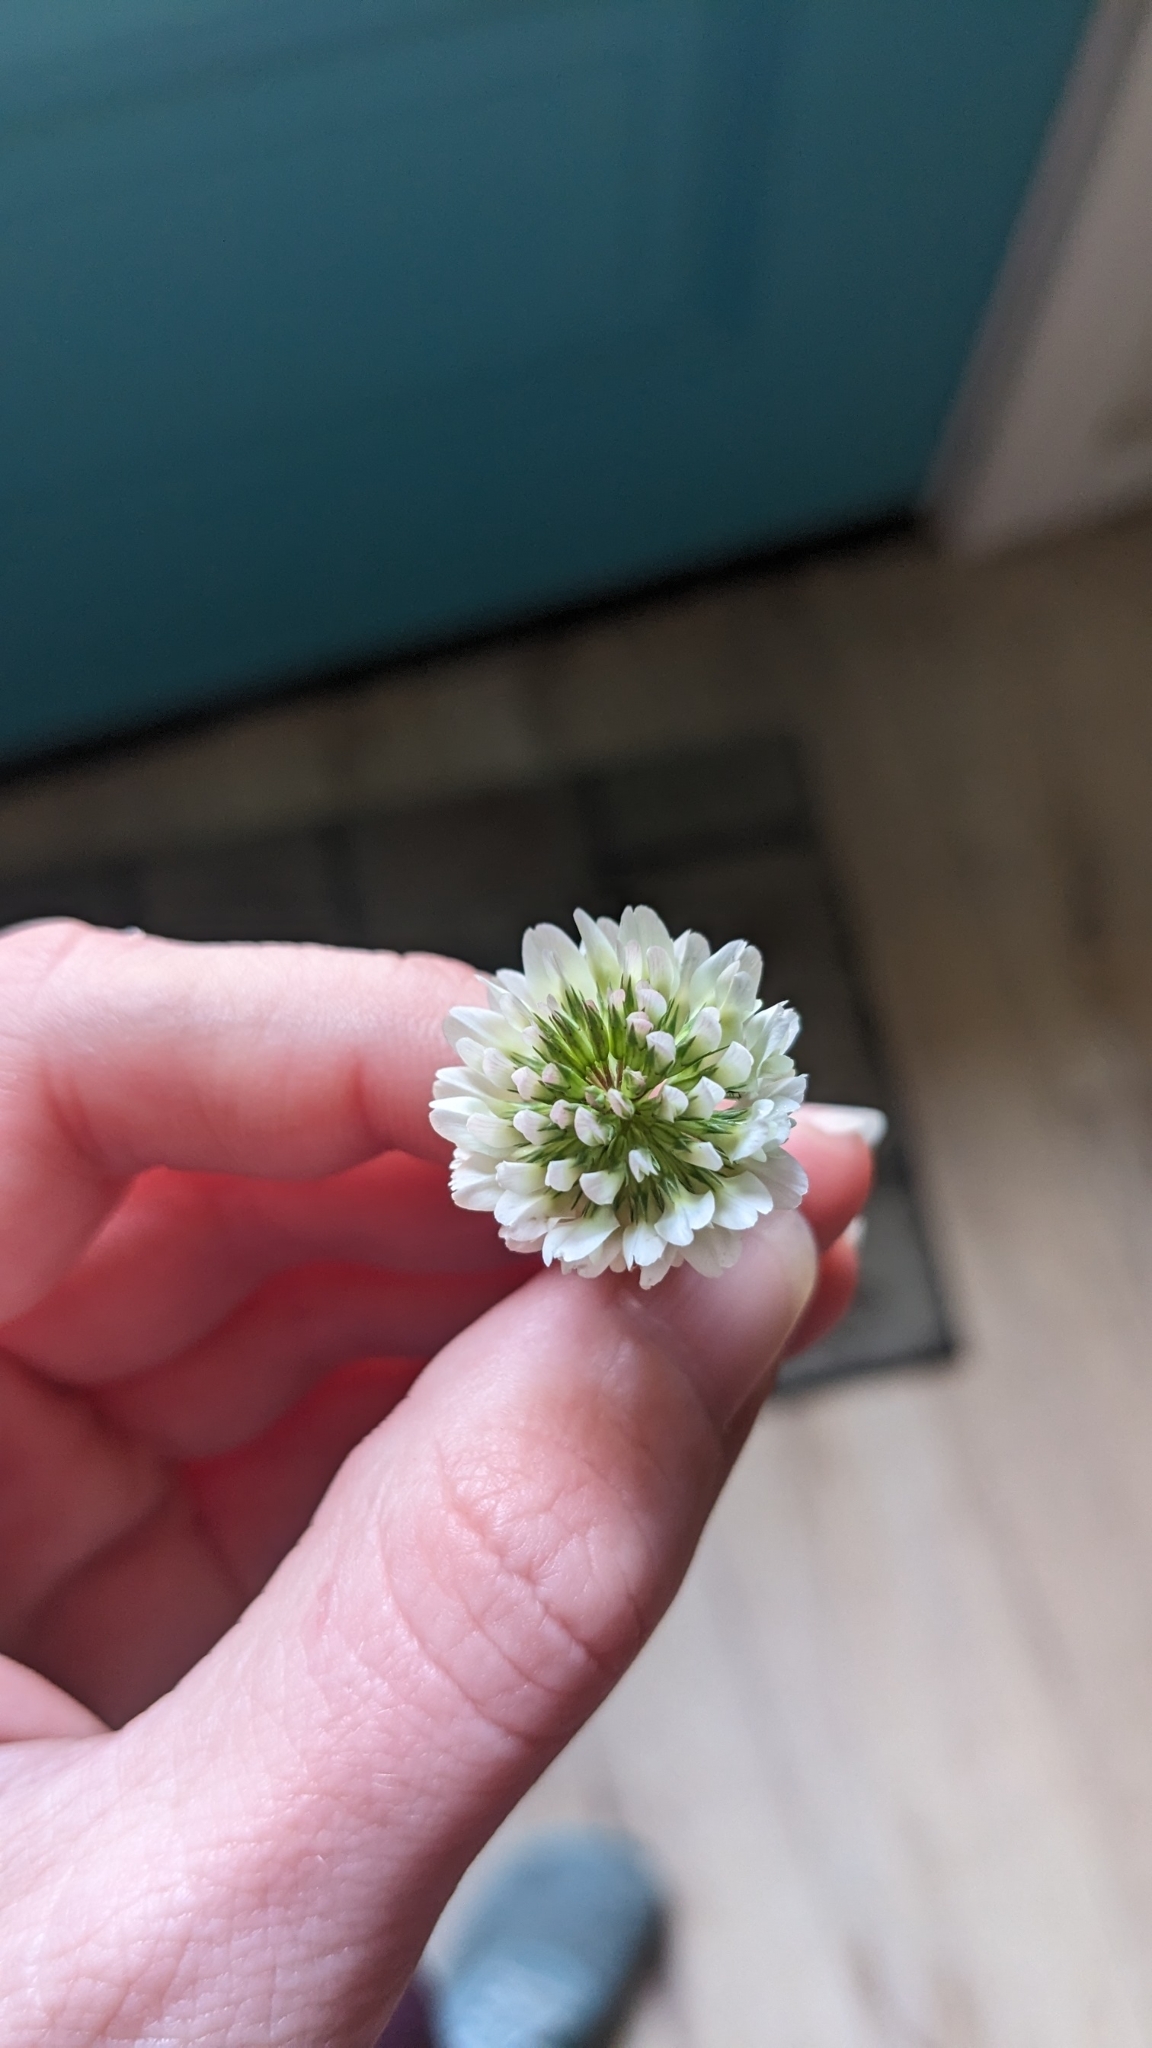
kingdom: Plantae
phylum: Tracheophyta
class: Magnoliopsida
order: Fabales
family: Fabaceae
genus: Trifolium
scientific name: Trifolium repens
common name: White clover
